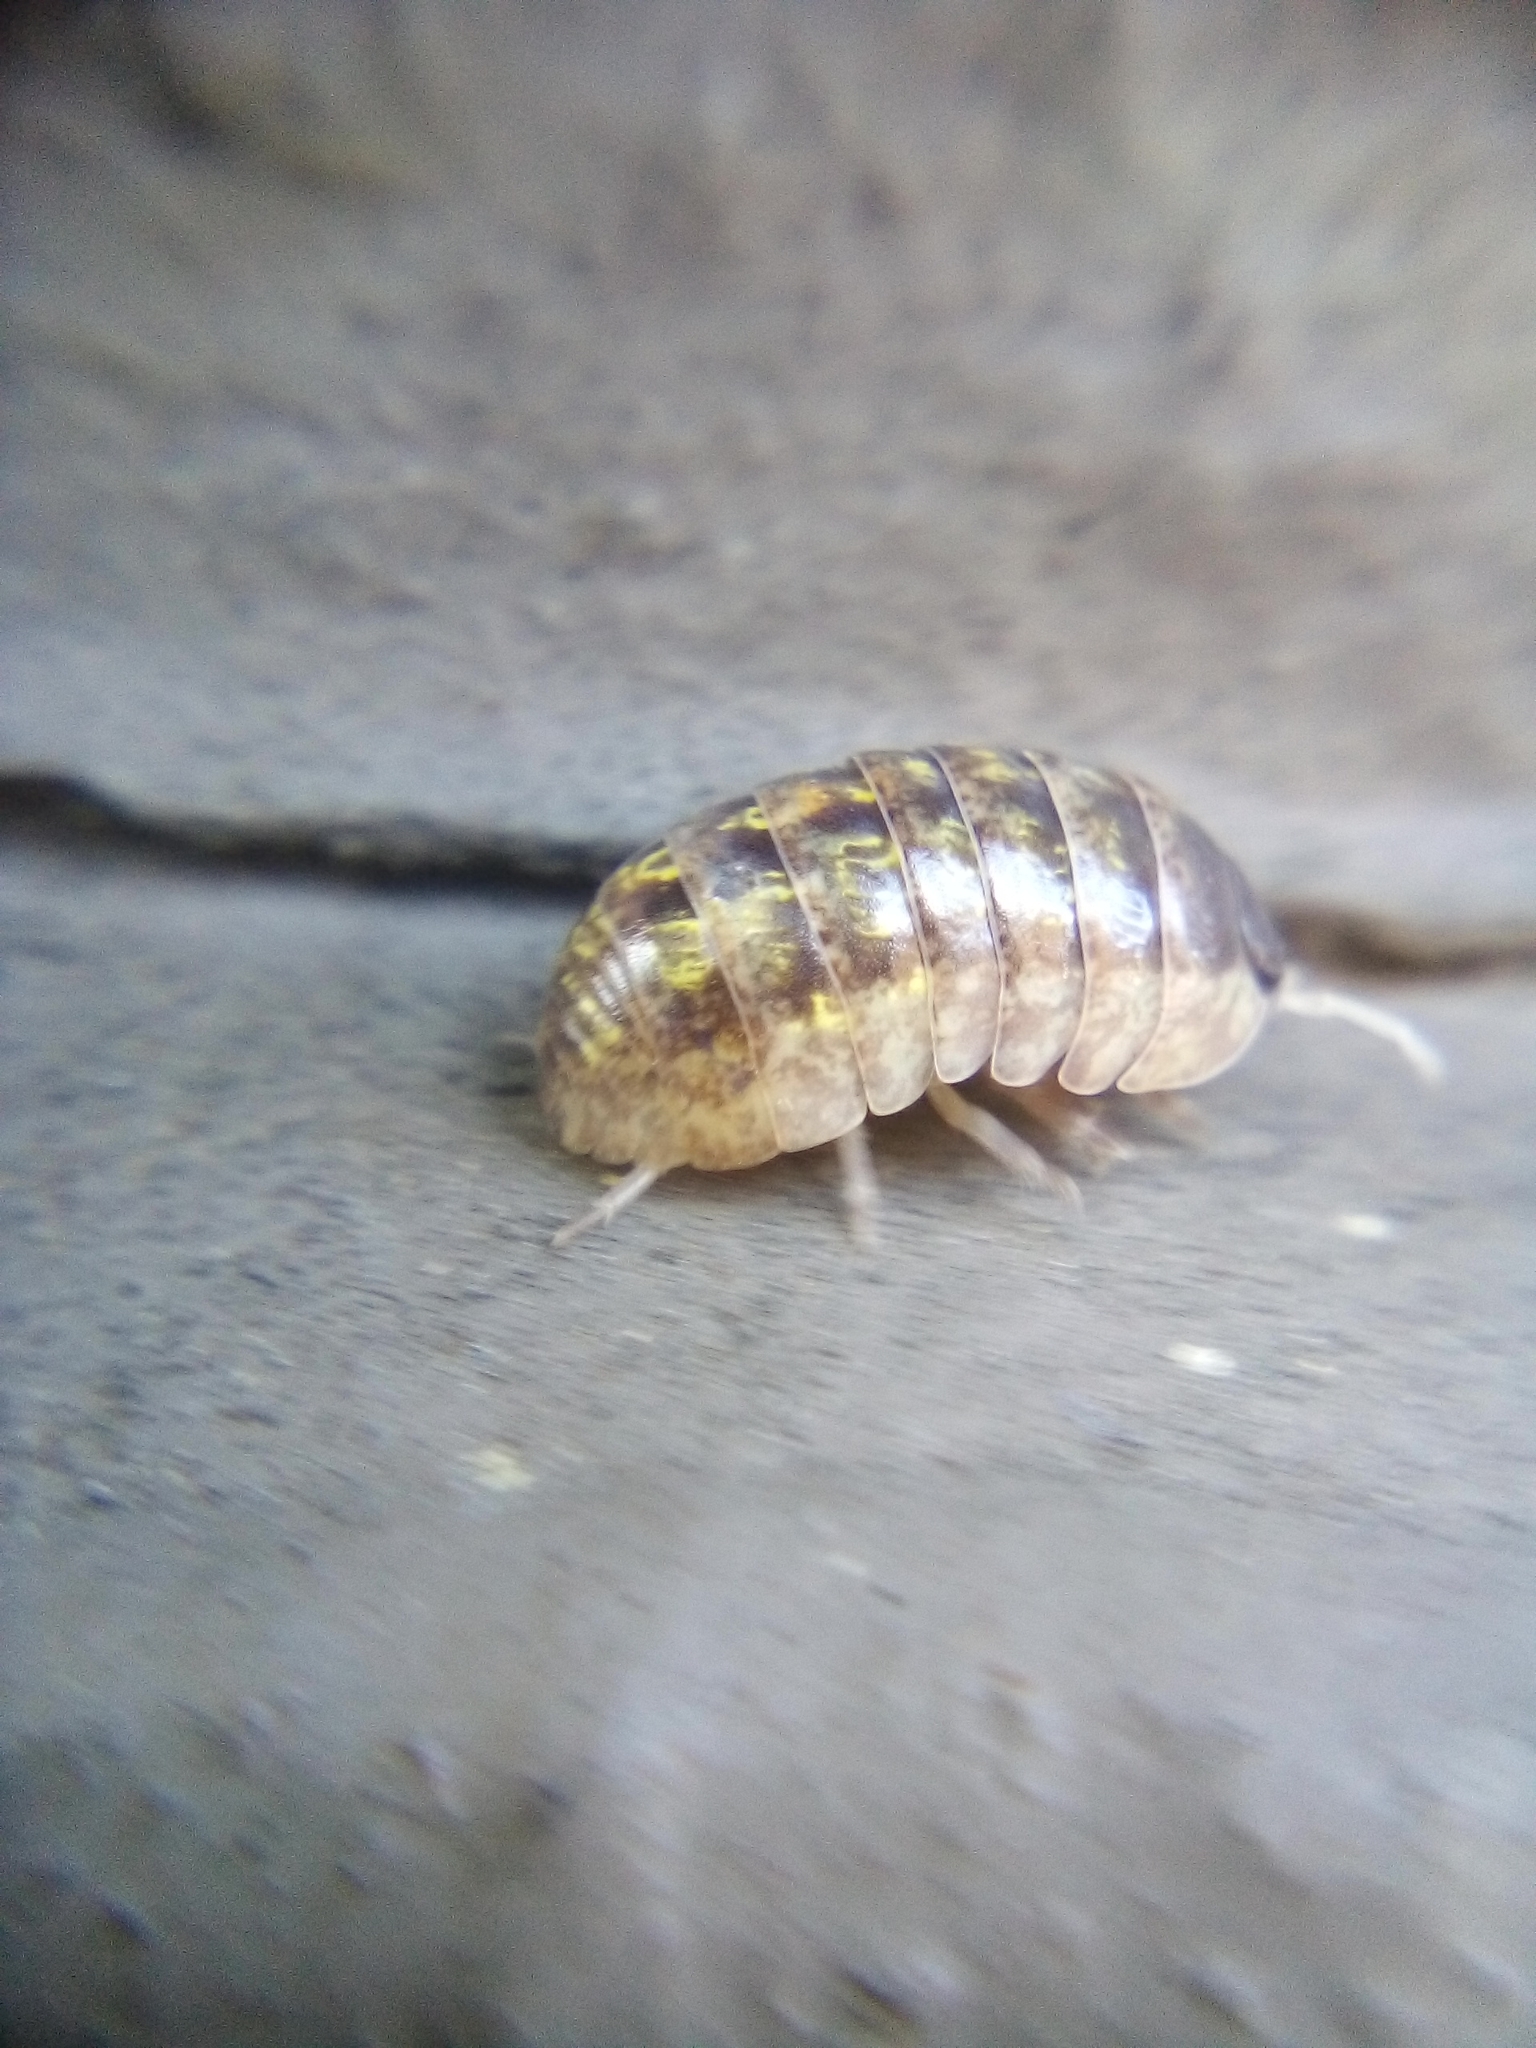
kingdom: Animalia
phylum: Arthropoda
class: Malacostraca
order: Isopoda
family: Armadillidiidae
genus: Armadillidium
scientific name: Armadillidium vulgare
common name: Common pill woodlouse
